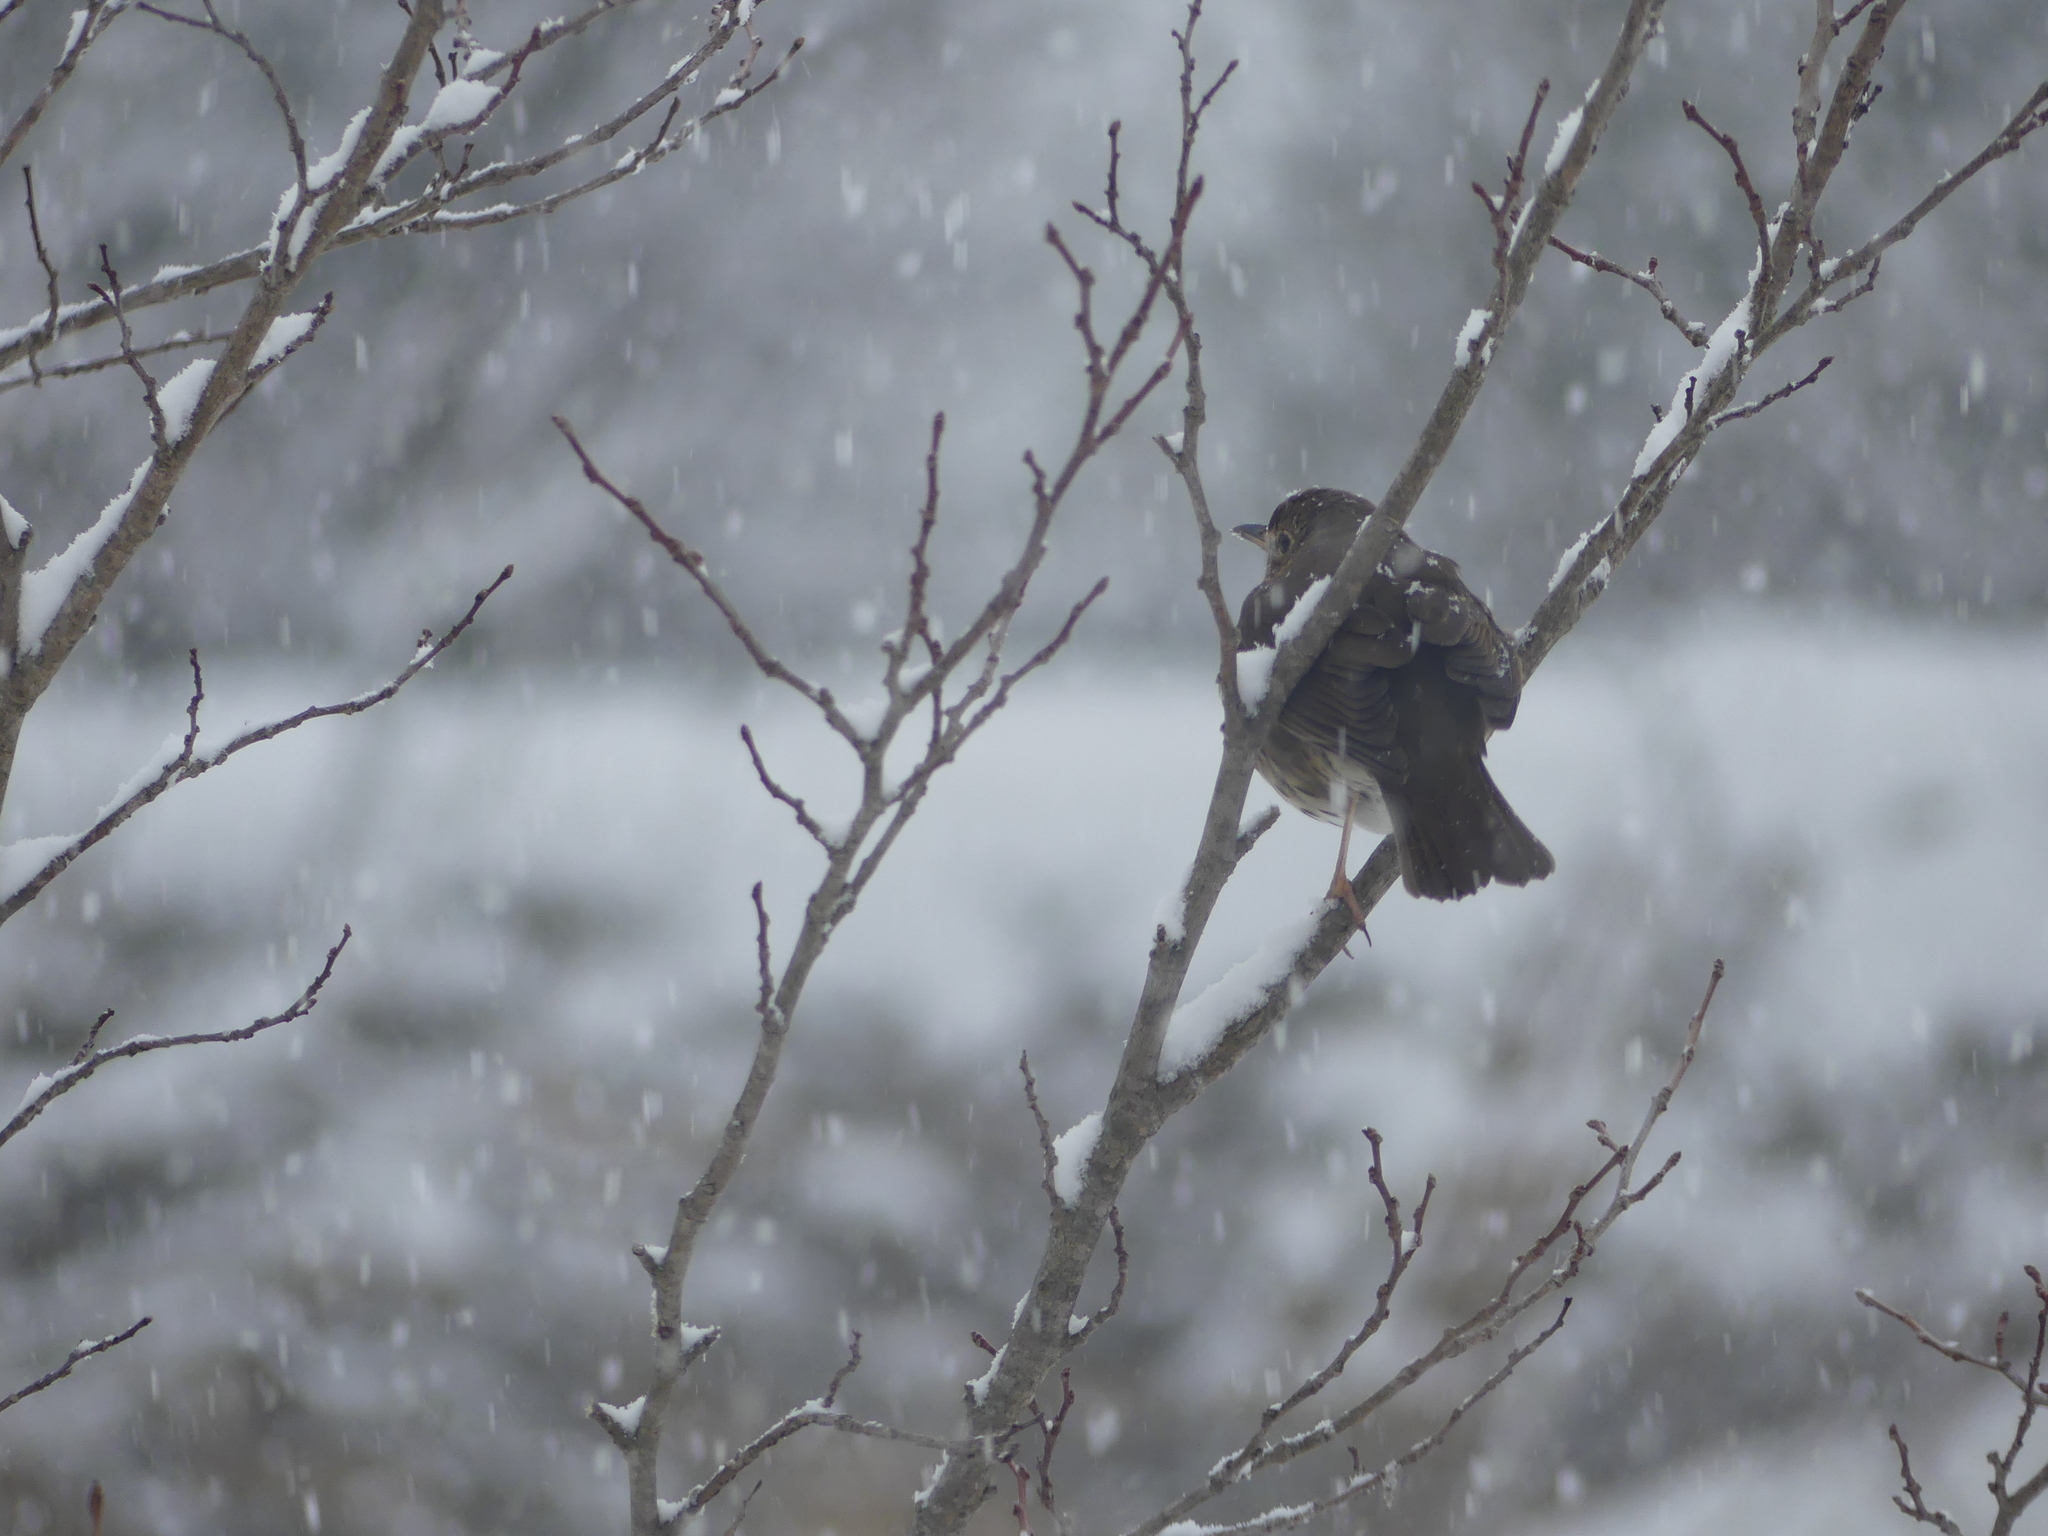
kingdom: Animalia
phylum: Chordata
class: Aves
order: Passeriformes
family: Turdidae
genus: Turdus
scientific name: Turdus philomelos
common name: Song thrush
